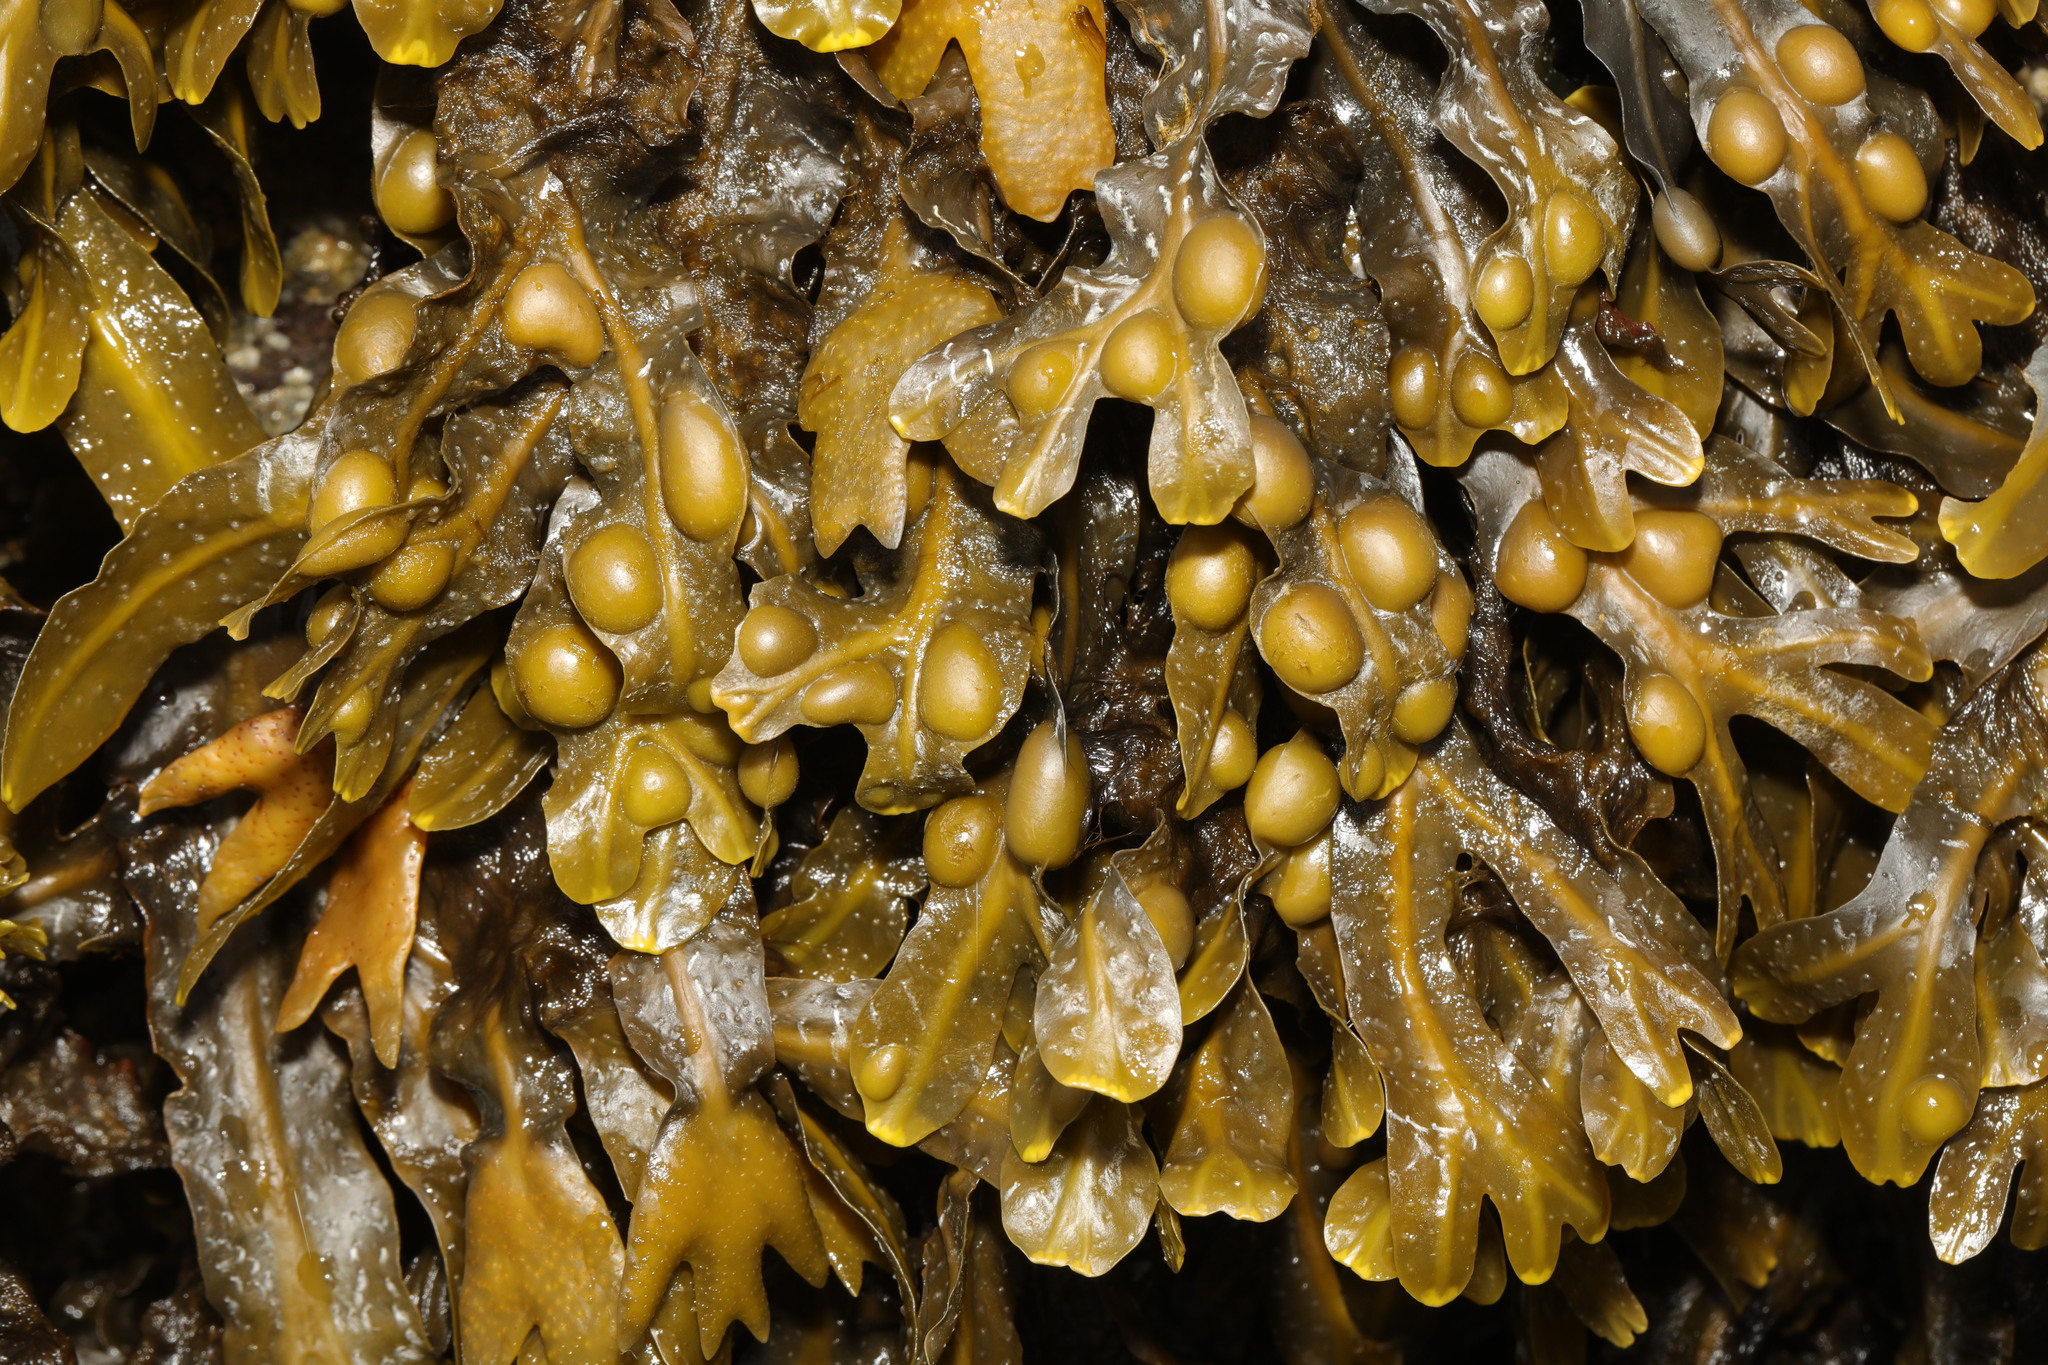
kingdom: Chromista
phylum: Ochrophyta
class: Phaeophyceae
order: Fucales
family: Fucaceae
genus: Fucus
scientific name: Fucus vesiculosus
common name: Bladder wrack
